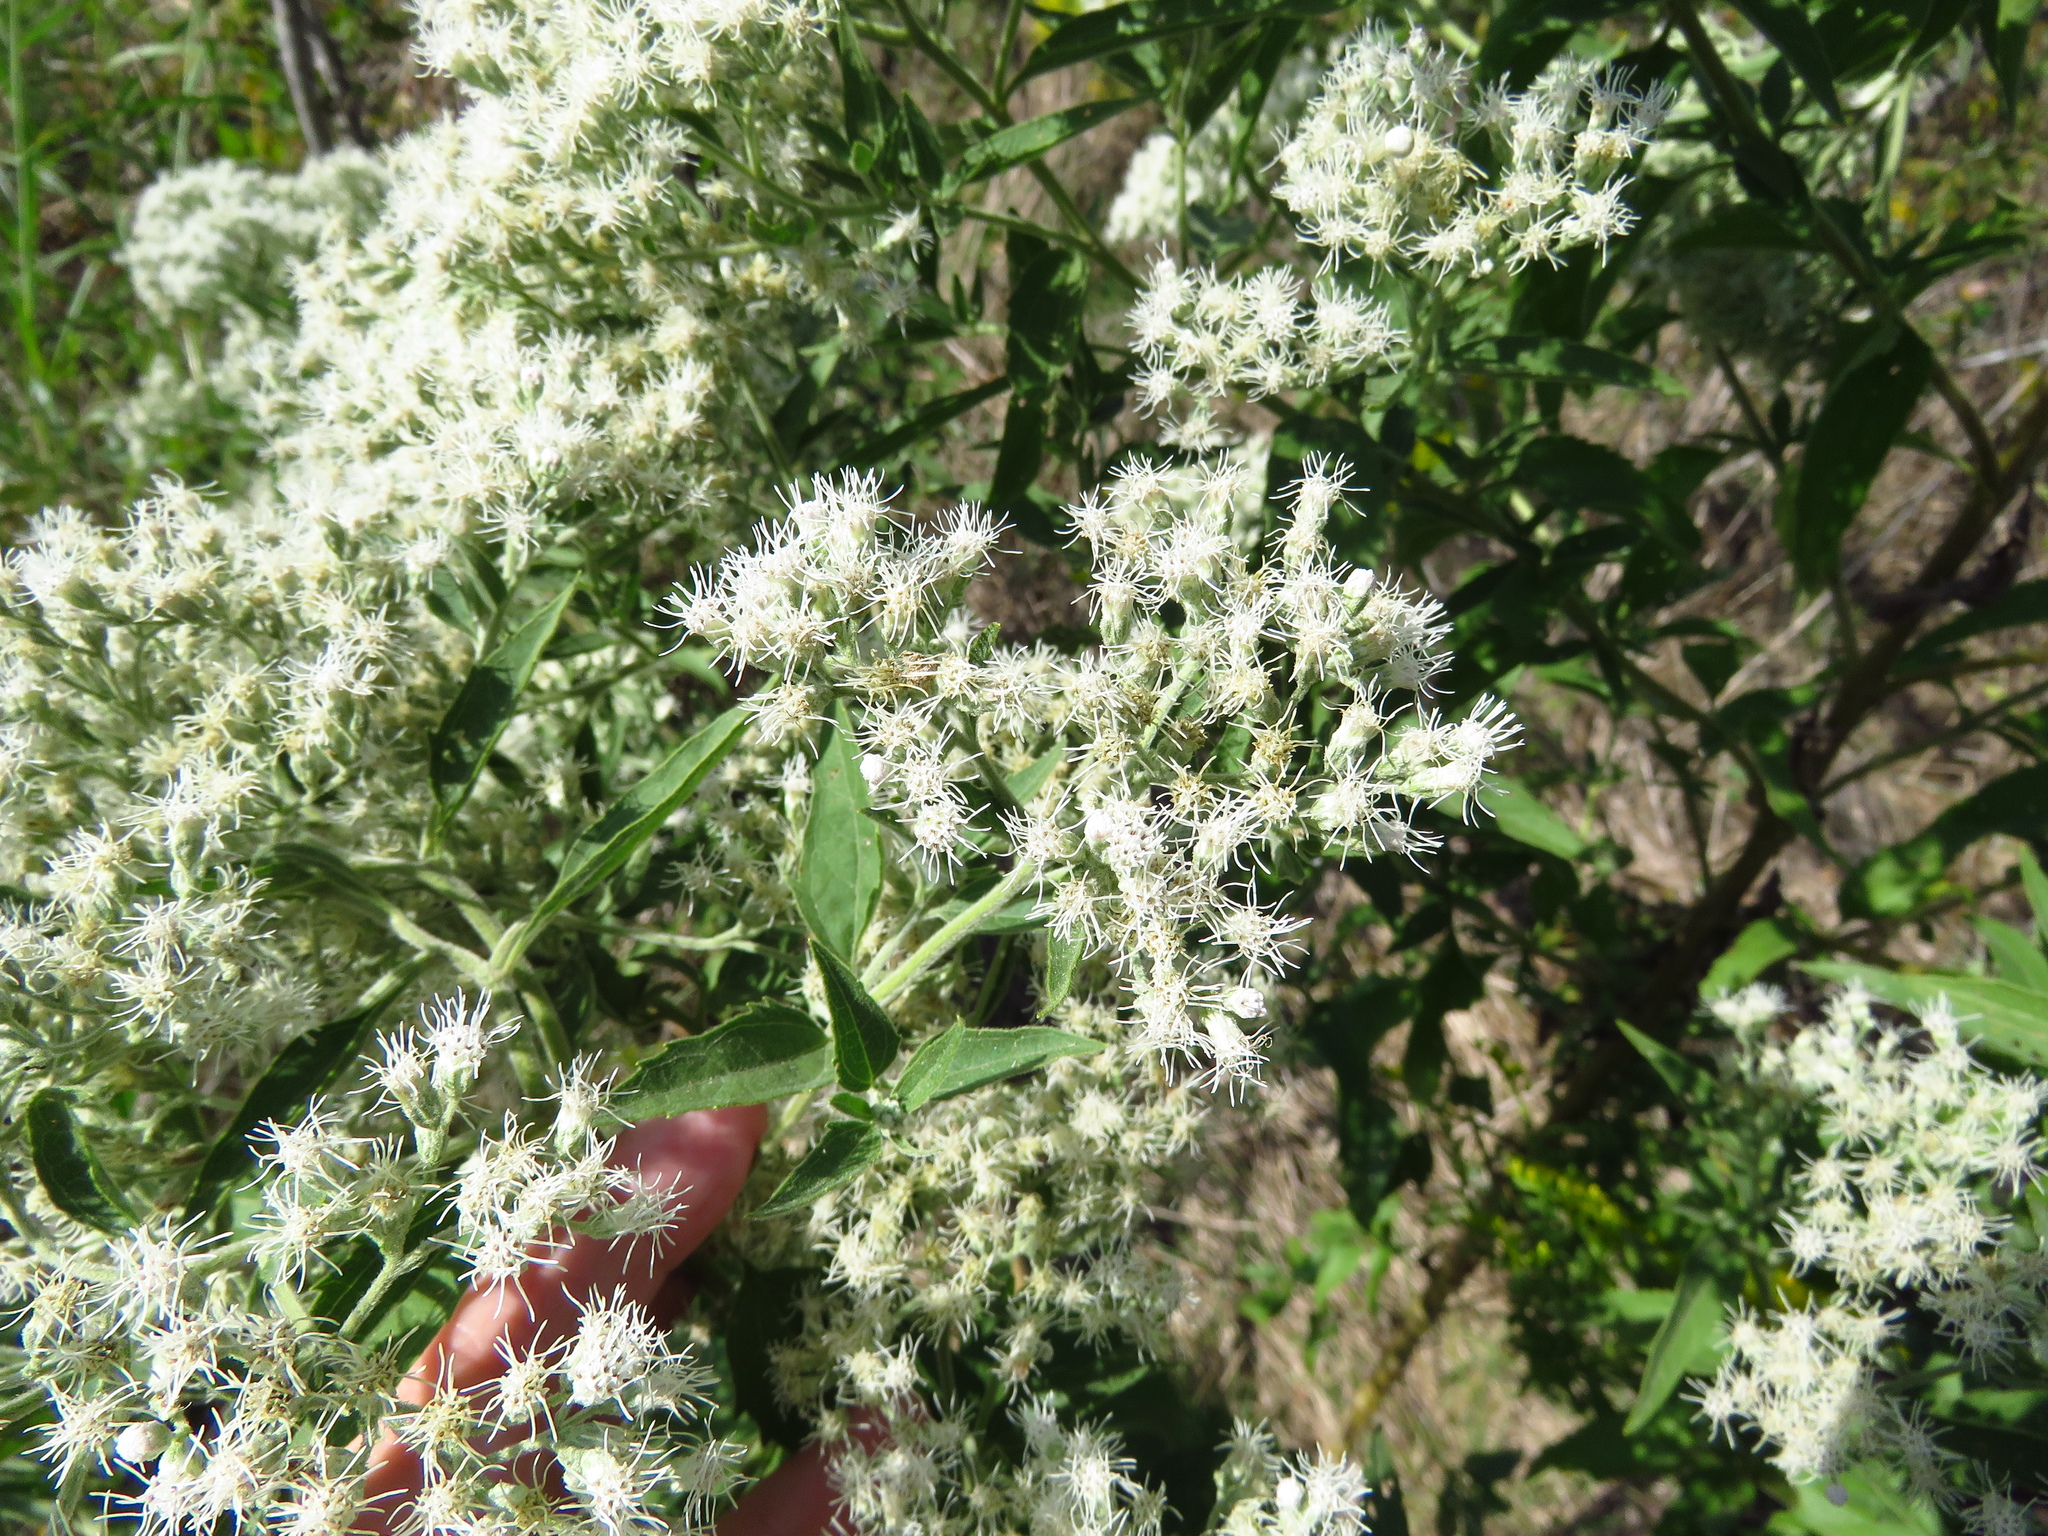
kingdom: Plantae
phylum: Tracheophyta
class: Magnoliopsida
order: Asterales
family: Asteraceae
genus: Eupatorium
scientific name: Eupatorium serotinum
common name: Late boneset
